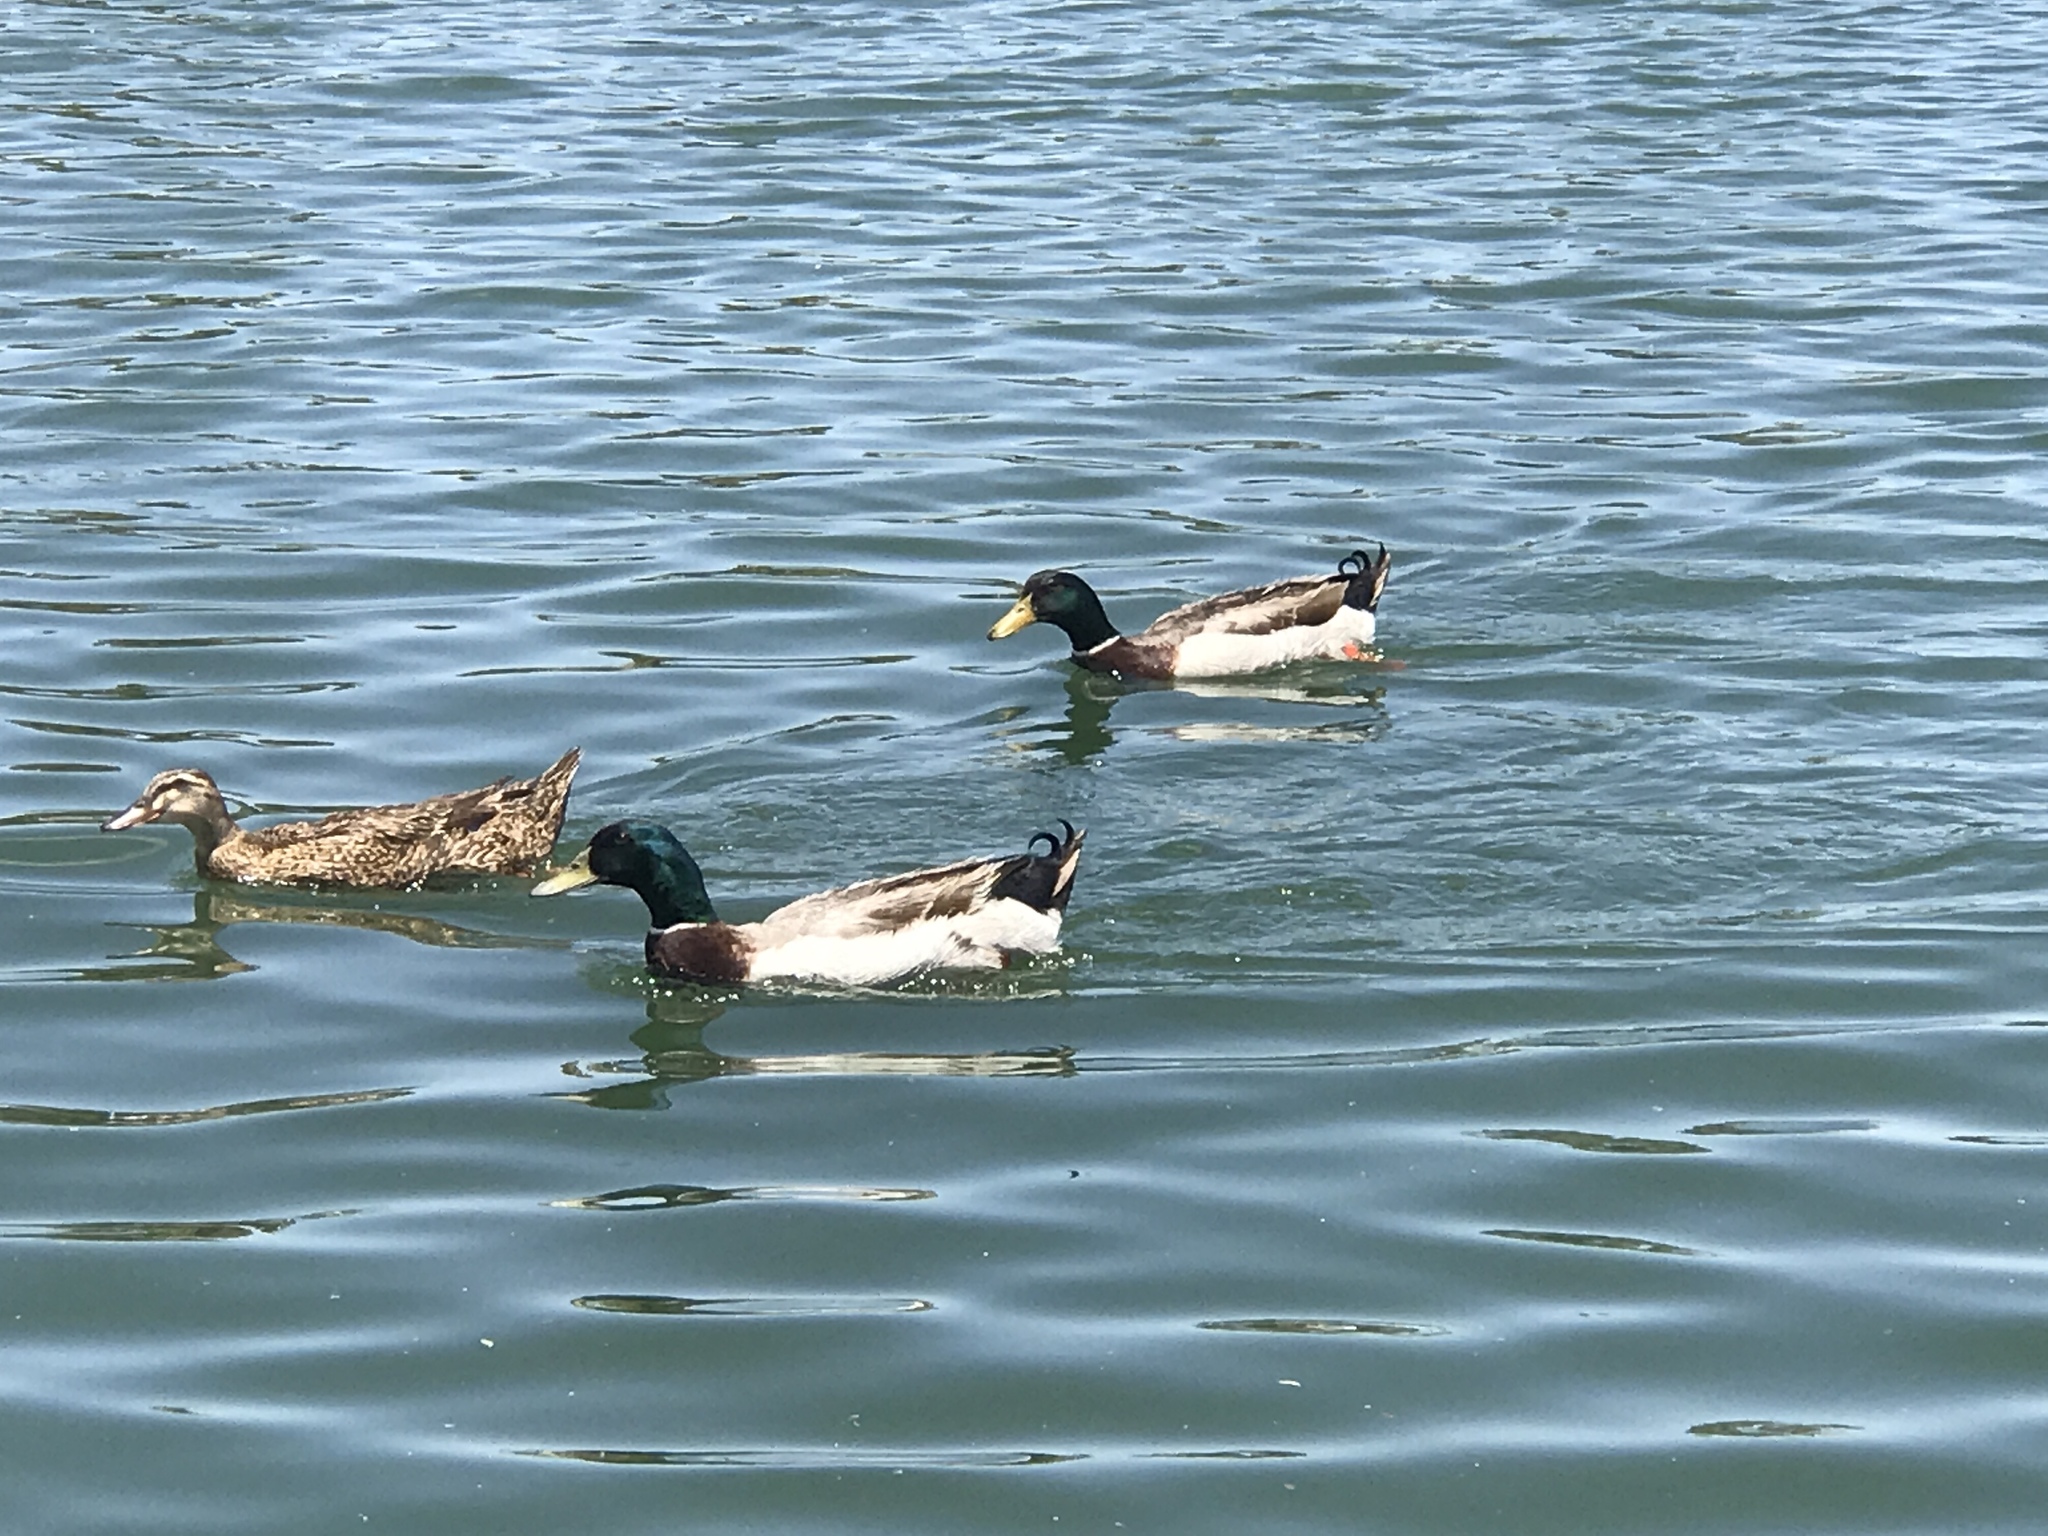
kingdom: Animalia
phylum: Chordata
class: Aves
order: Anseriformes
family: Anatidae
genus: Anas
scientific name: Anas platyrhynchos
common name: Mallard
